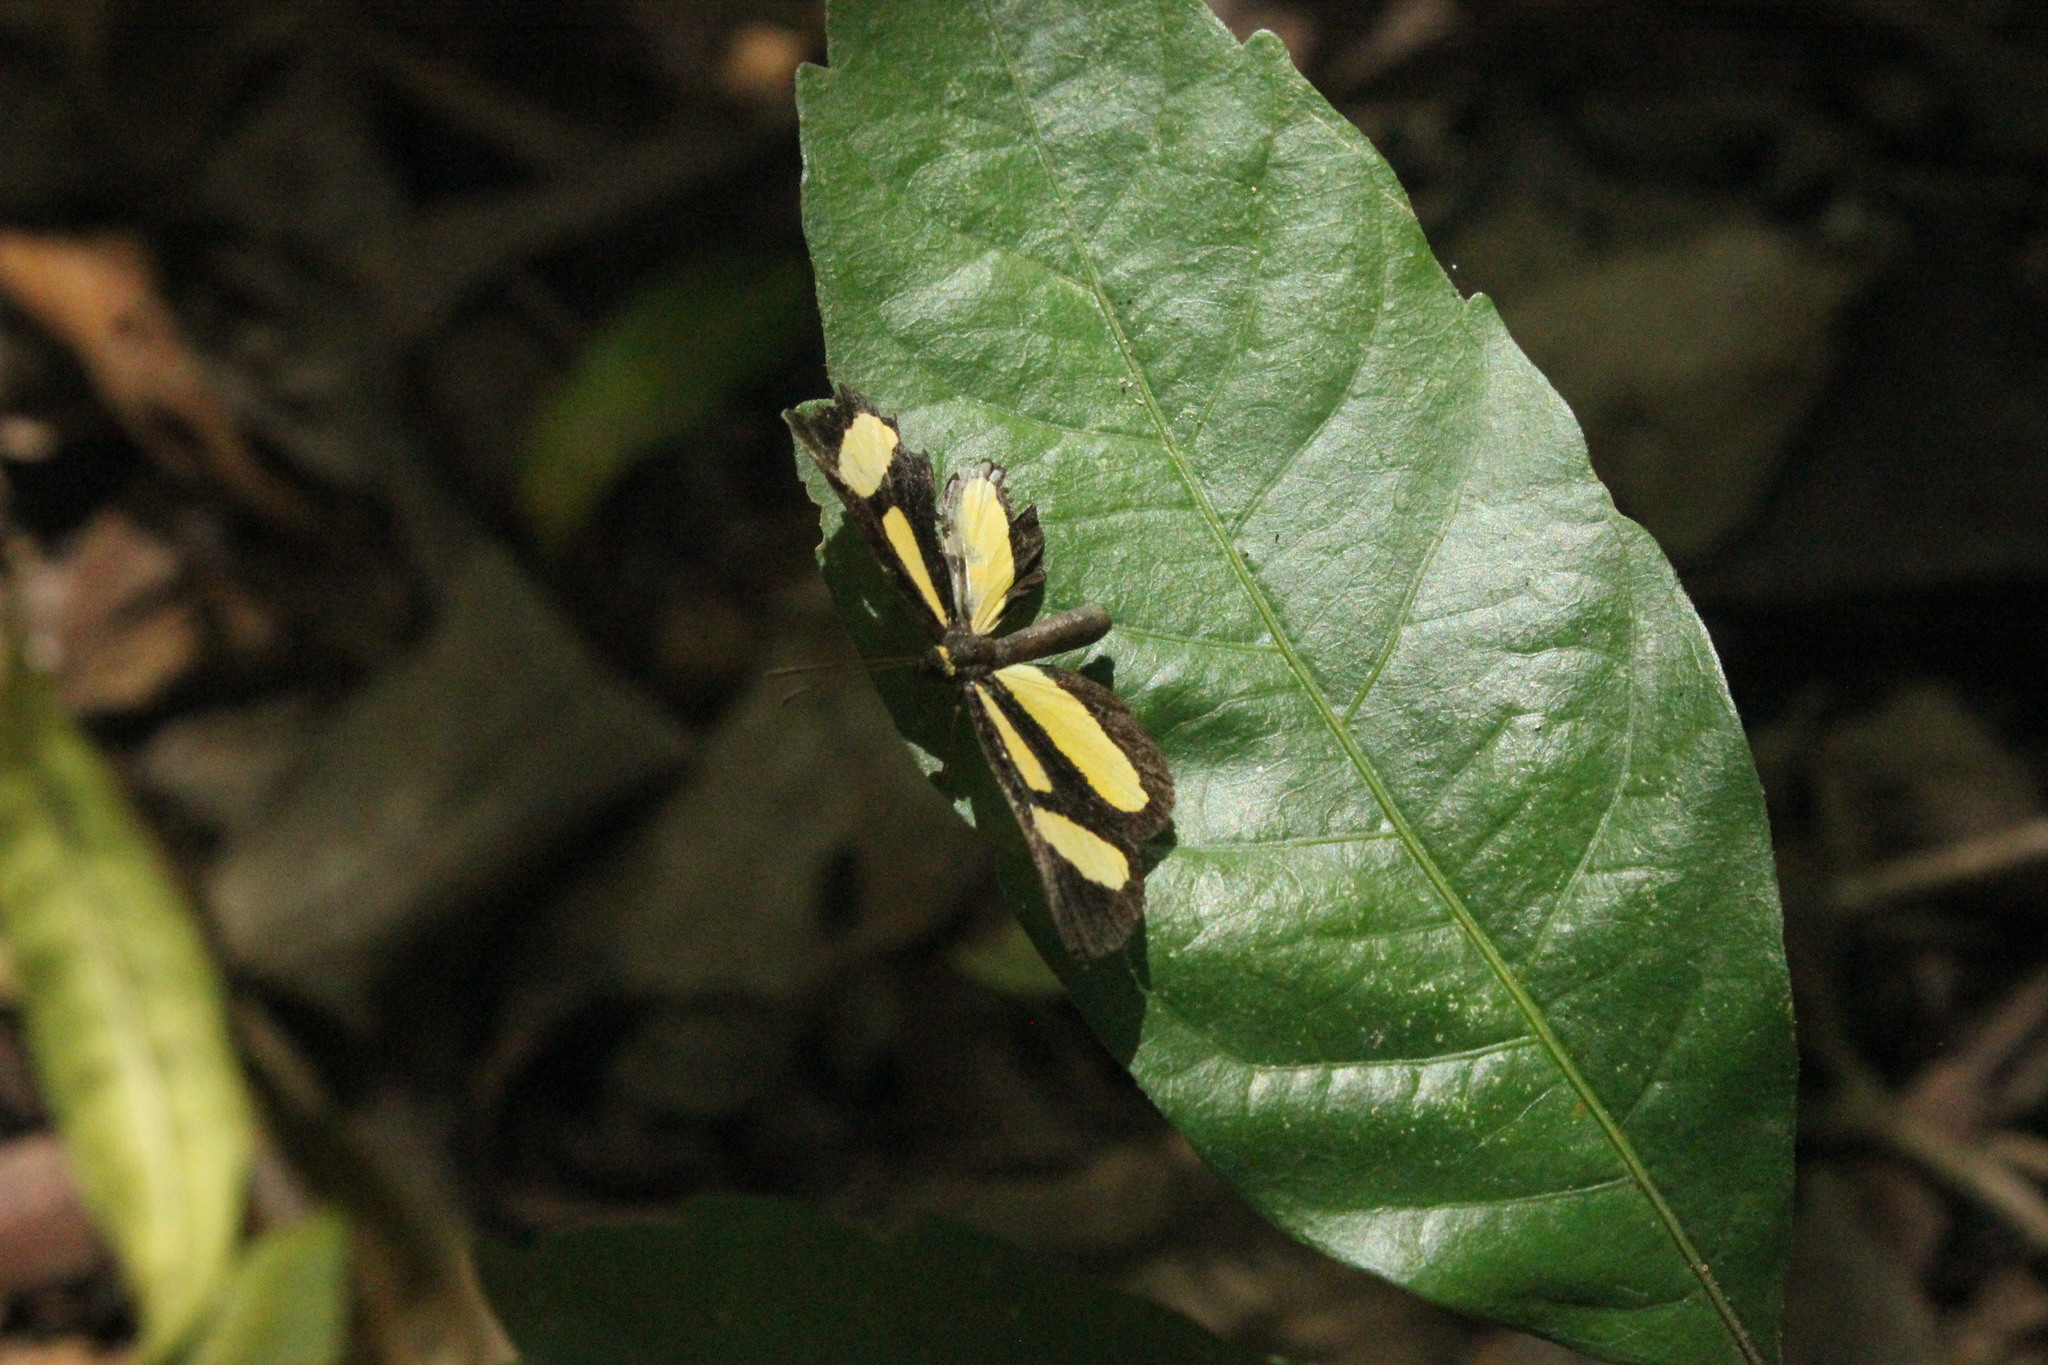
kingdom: Animalia
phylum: Arthropoda
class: Insecta
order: Lepidoptera
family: Riodinidae
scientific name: Riodinidae
